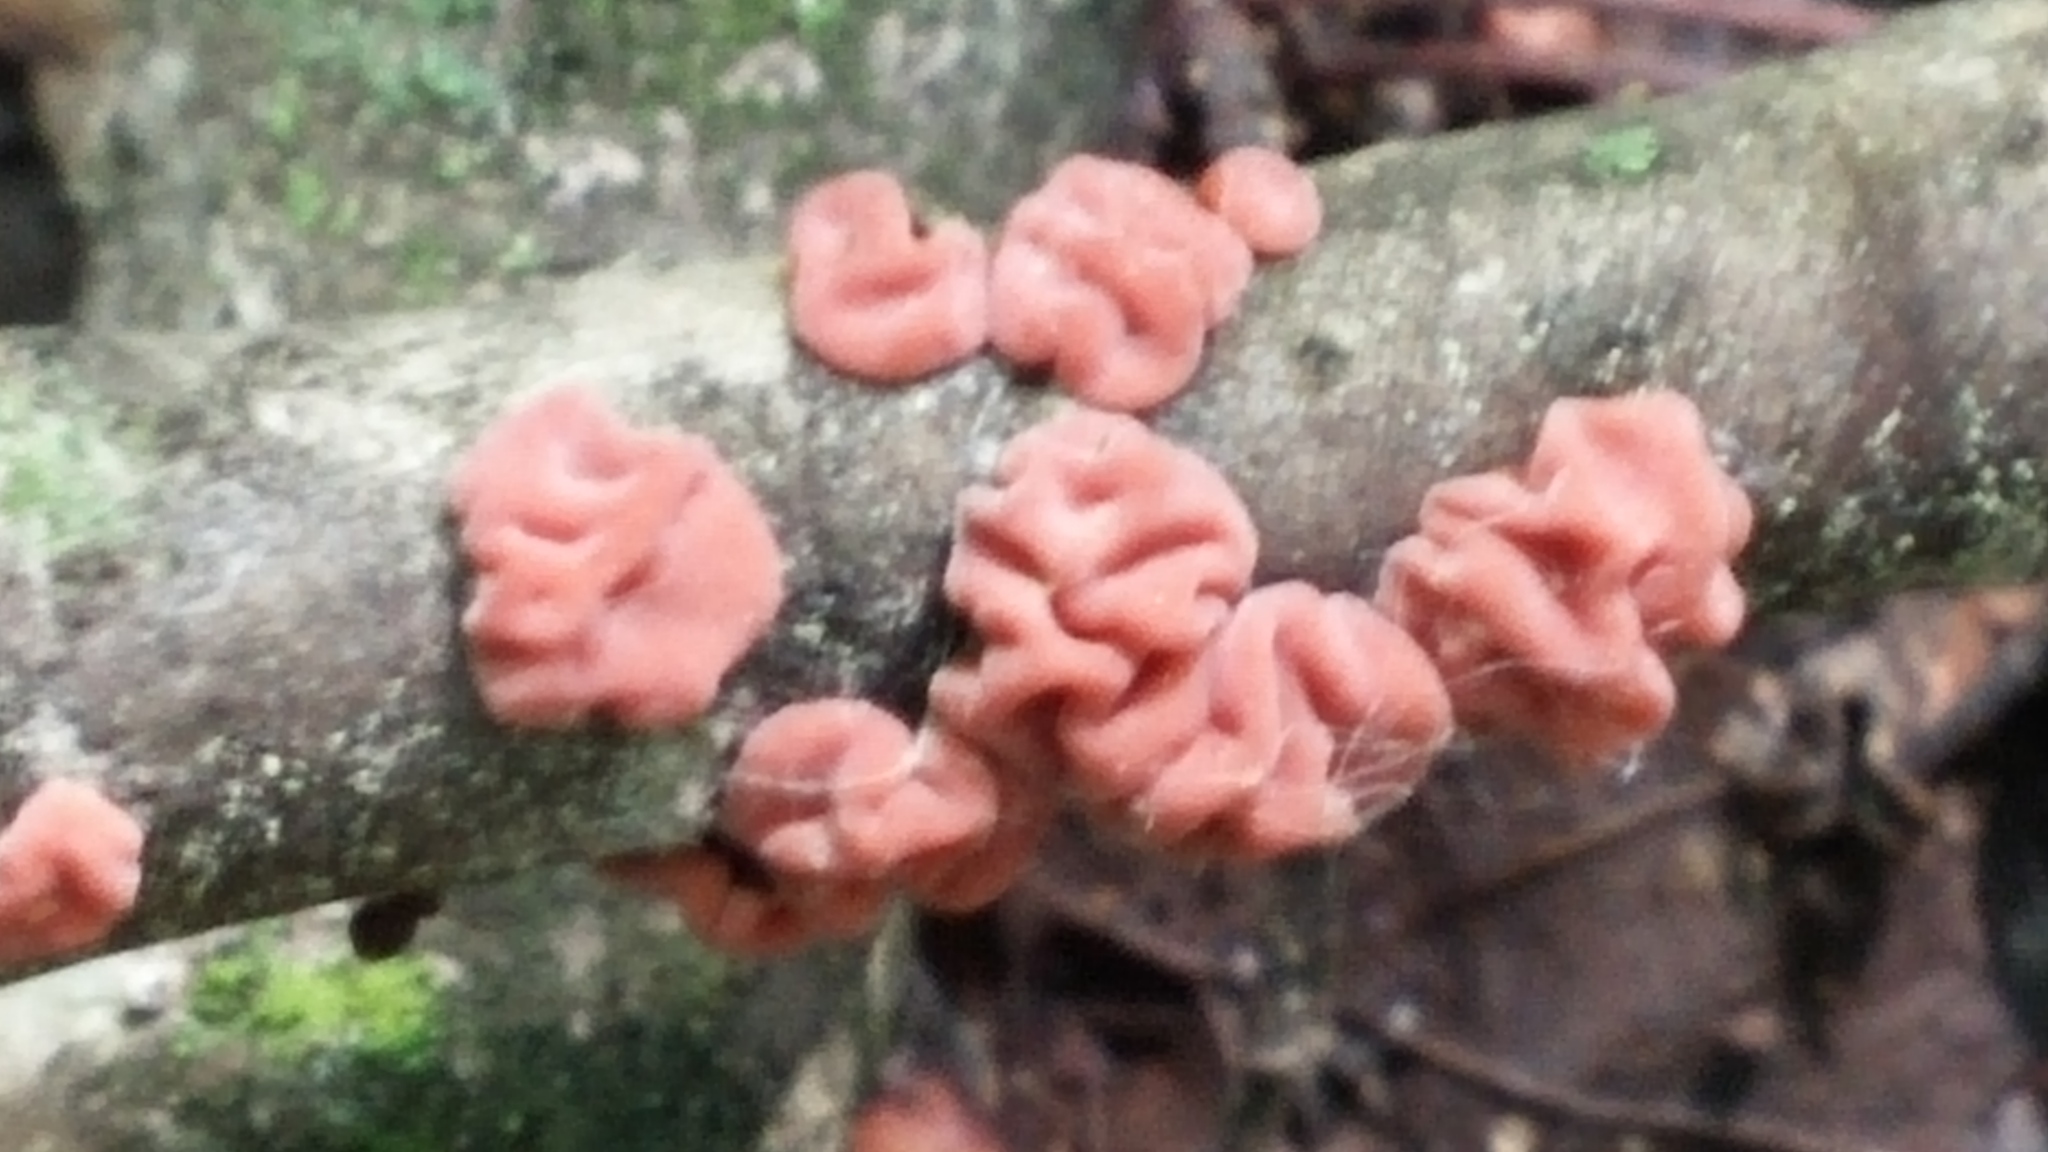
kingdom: Fungi
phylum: Basidiomycota
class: Agaricomycetes
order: Russulales
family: Peniophoraceae
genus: Peniophora
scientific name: Peniophora rufa
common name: Red tree brain fungus
